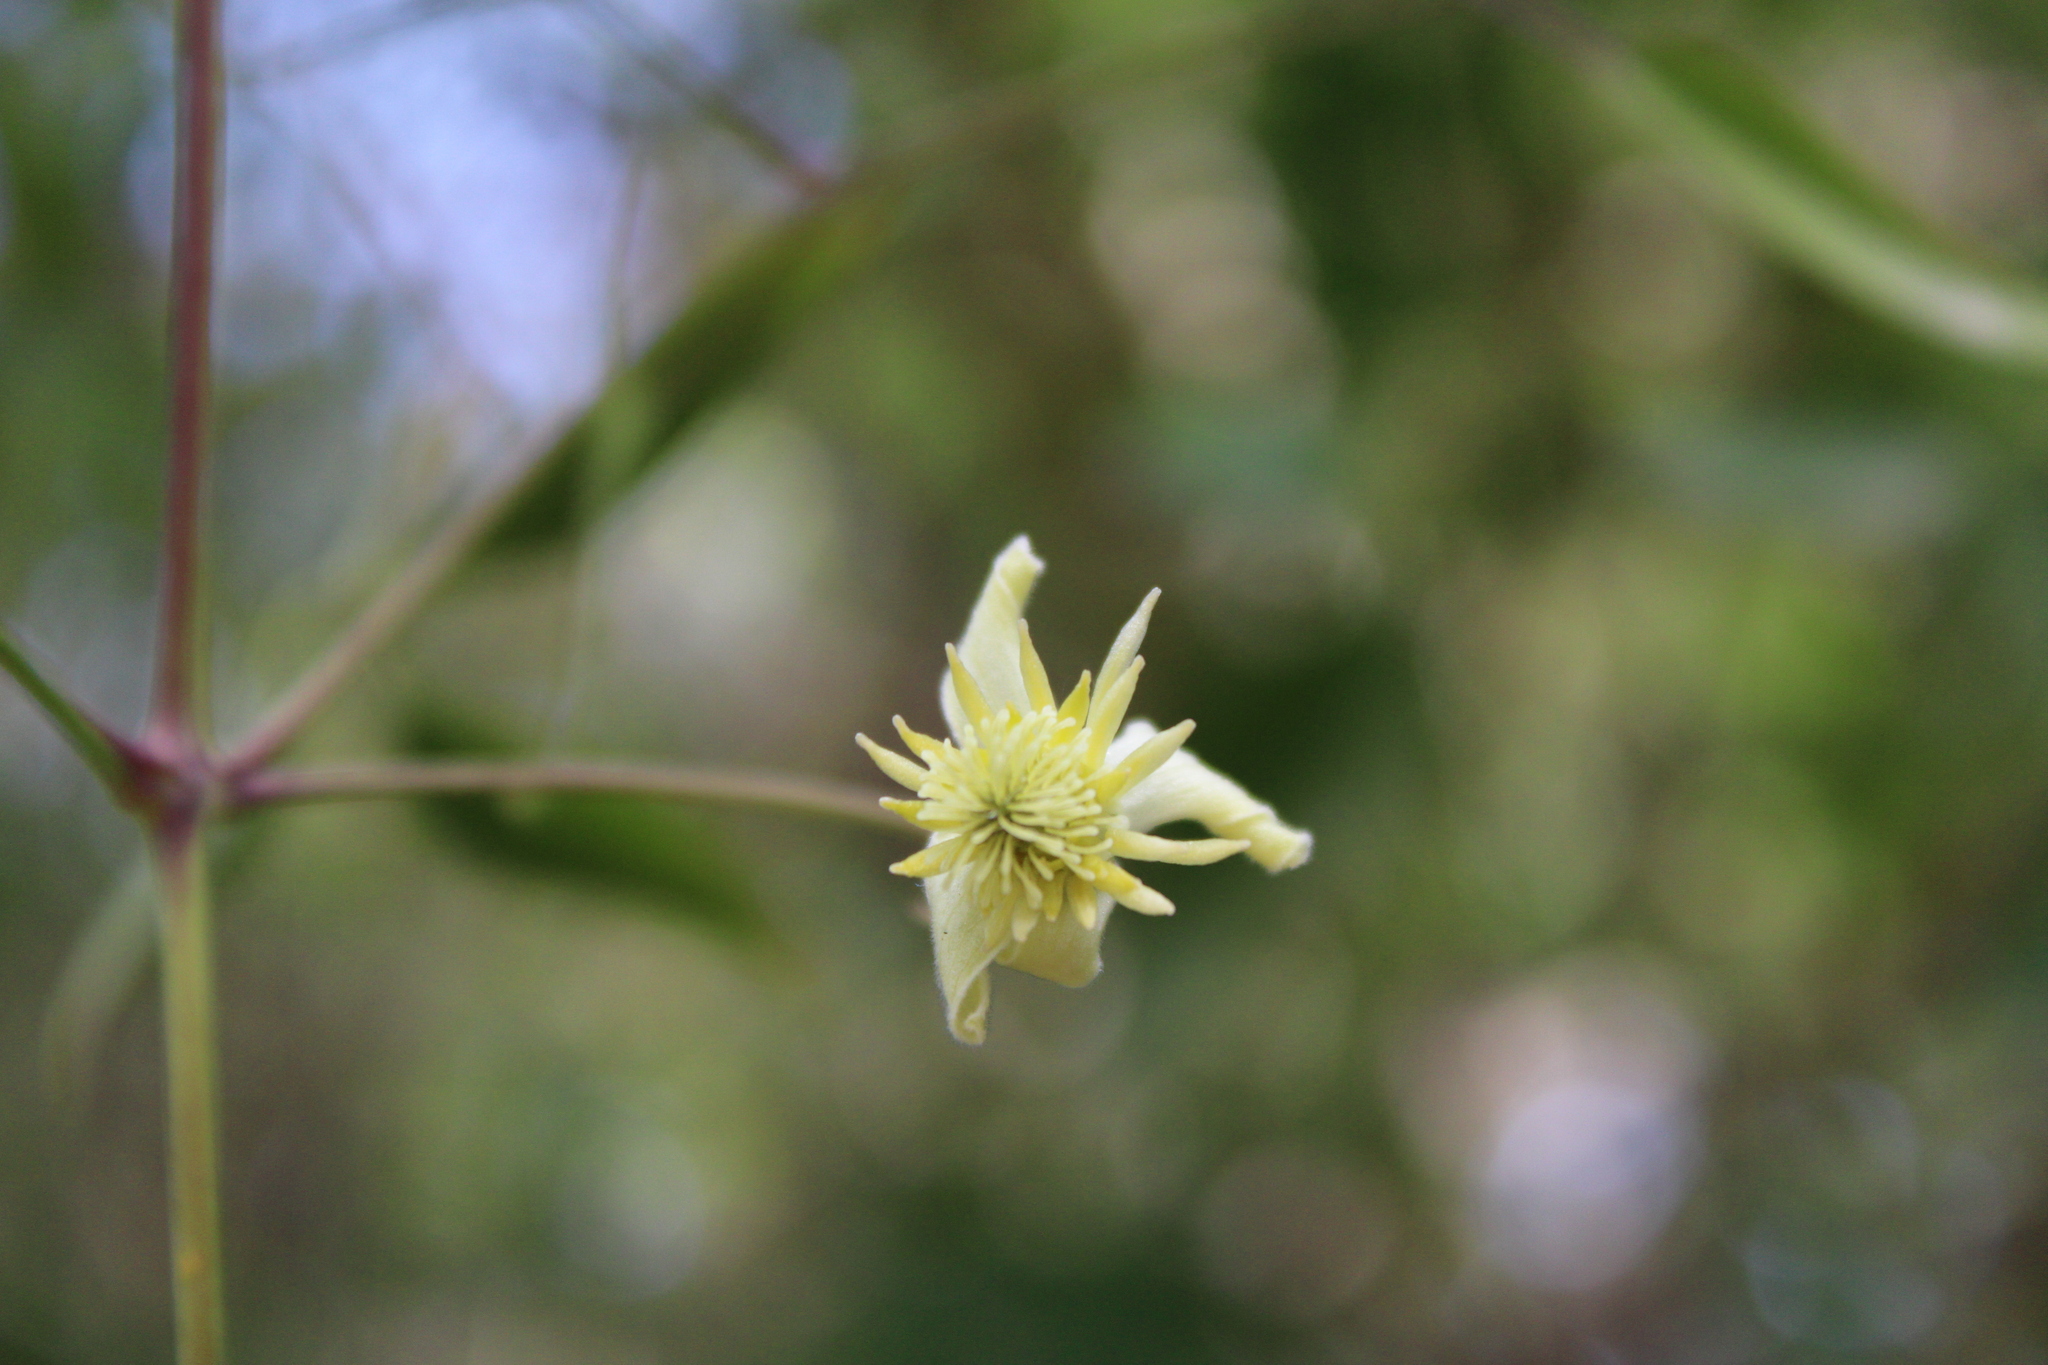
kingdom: Plantae
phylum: Tracheophyta
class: Magnoliopsida
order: Ranunculales
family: Ranunculaceae
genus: Clematis
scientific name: Clematis montevidensis
